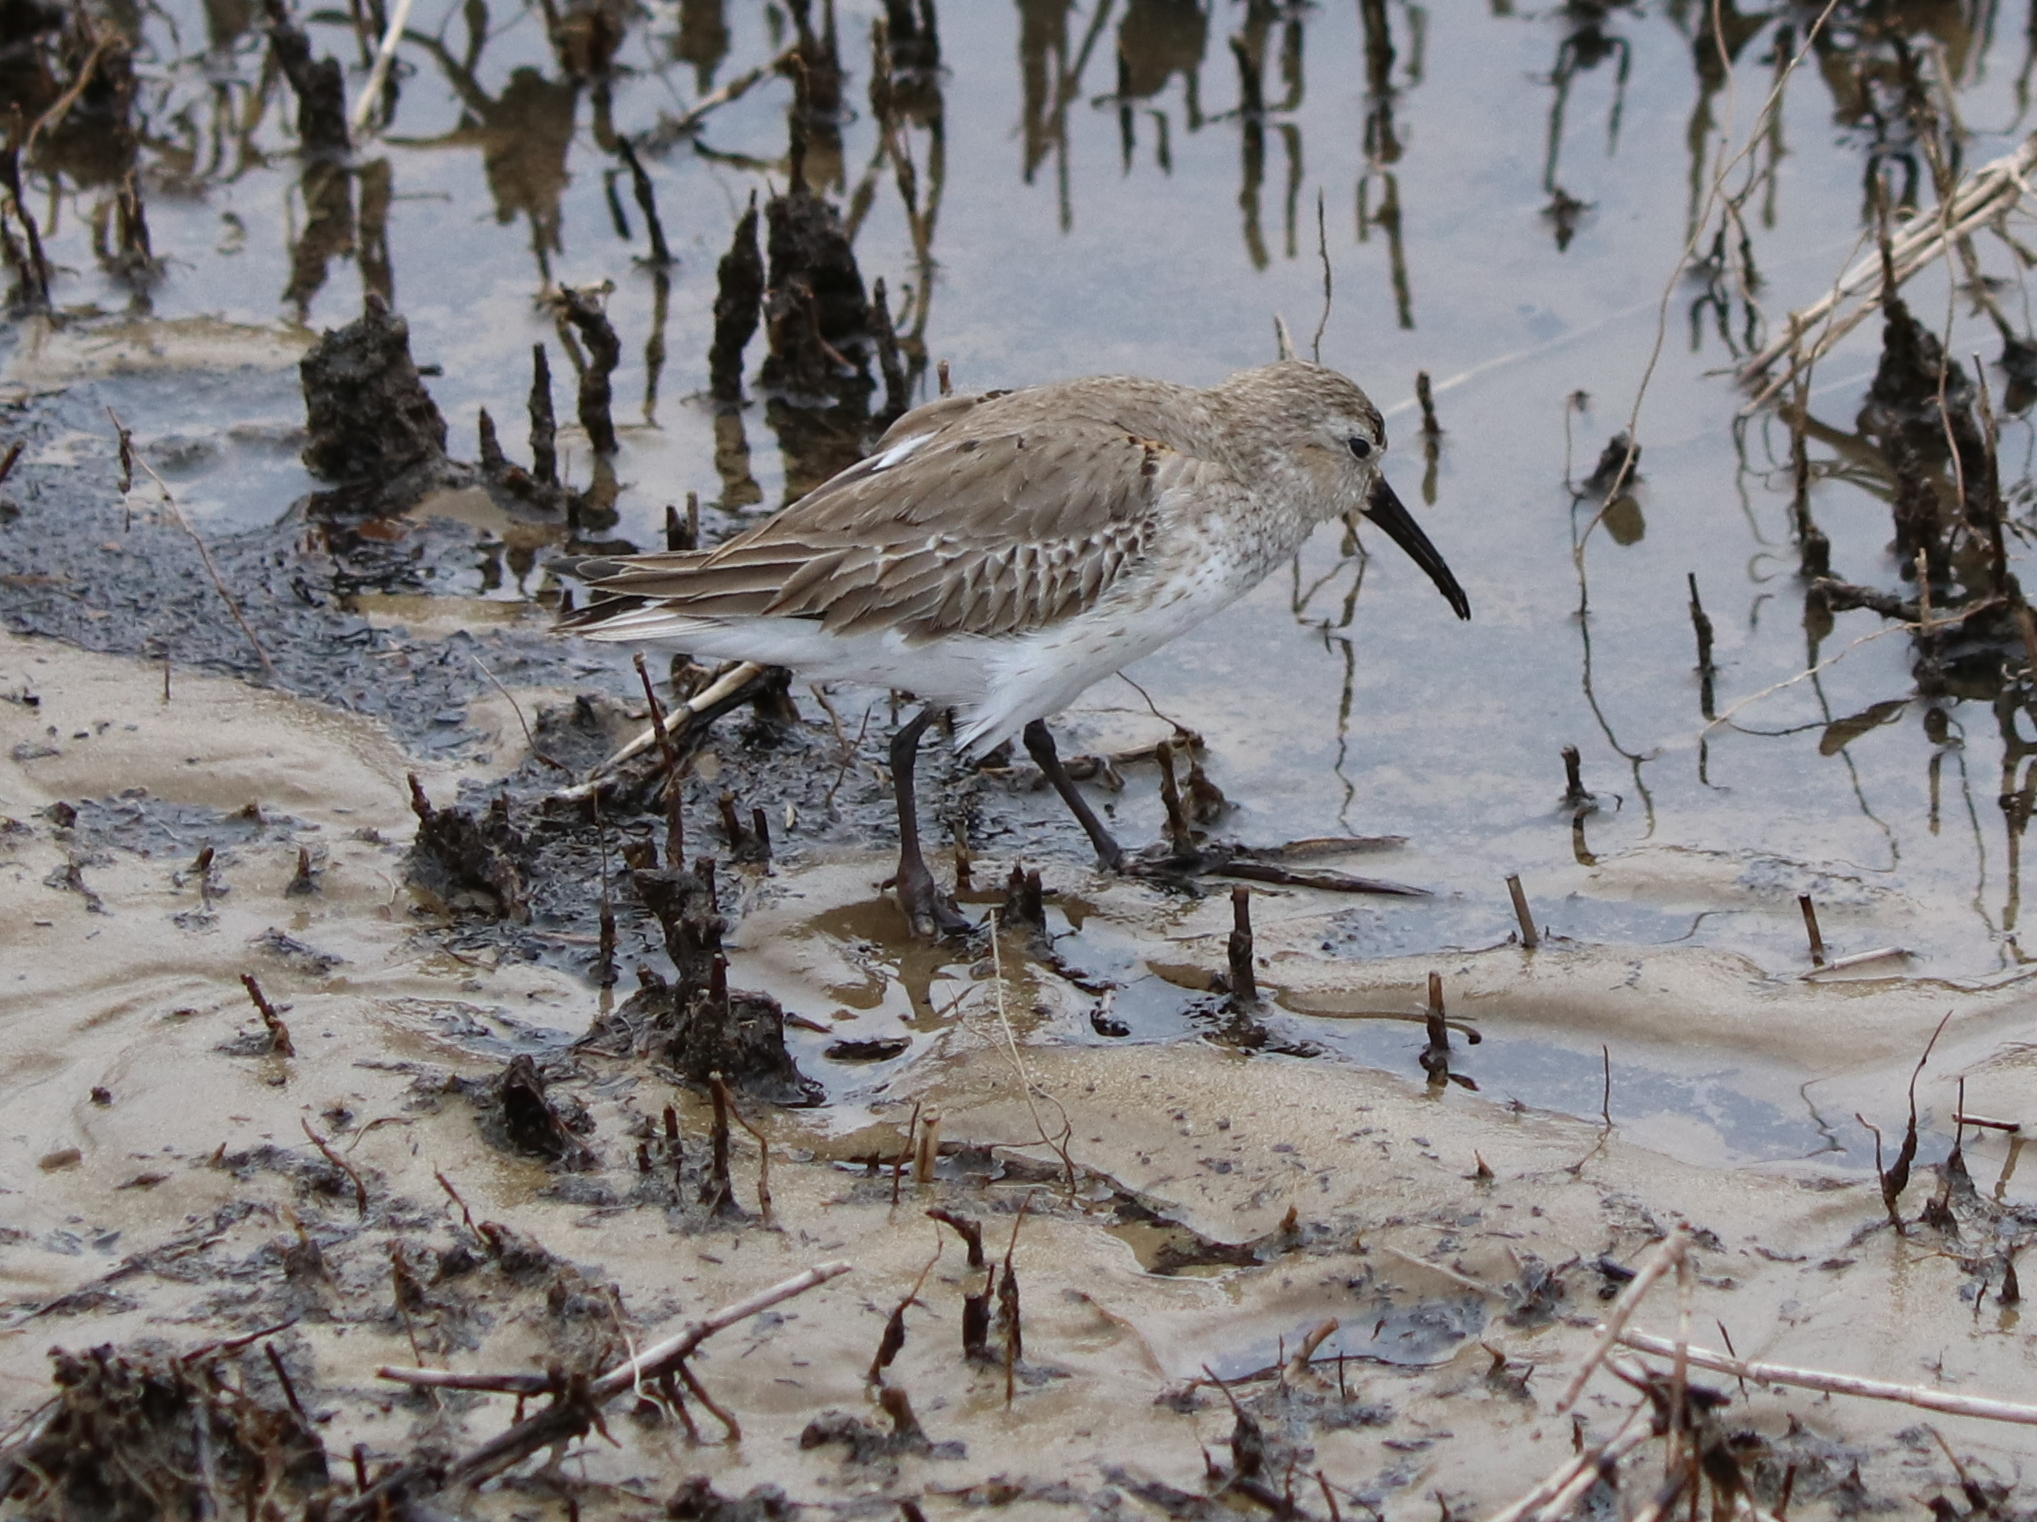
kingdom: Animalia
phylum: Chordata
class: Aves
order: Charadriiformes
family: Scolopacidae
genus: Calidris
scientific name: Calidris alpina
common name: Dunlin
